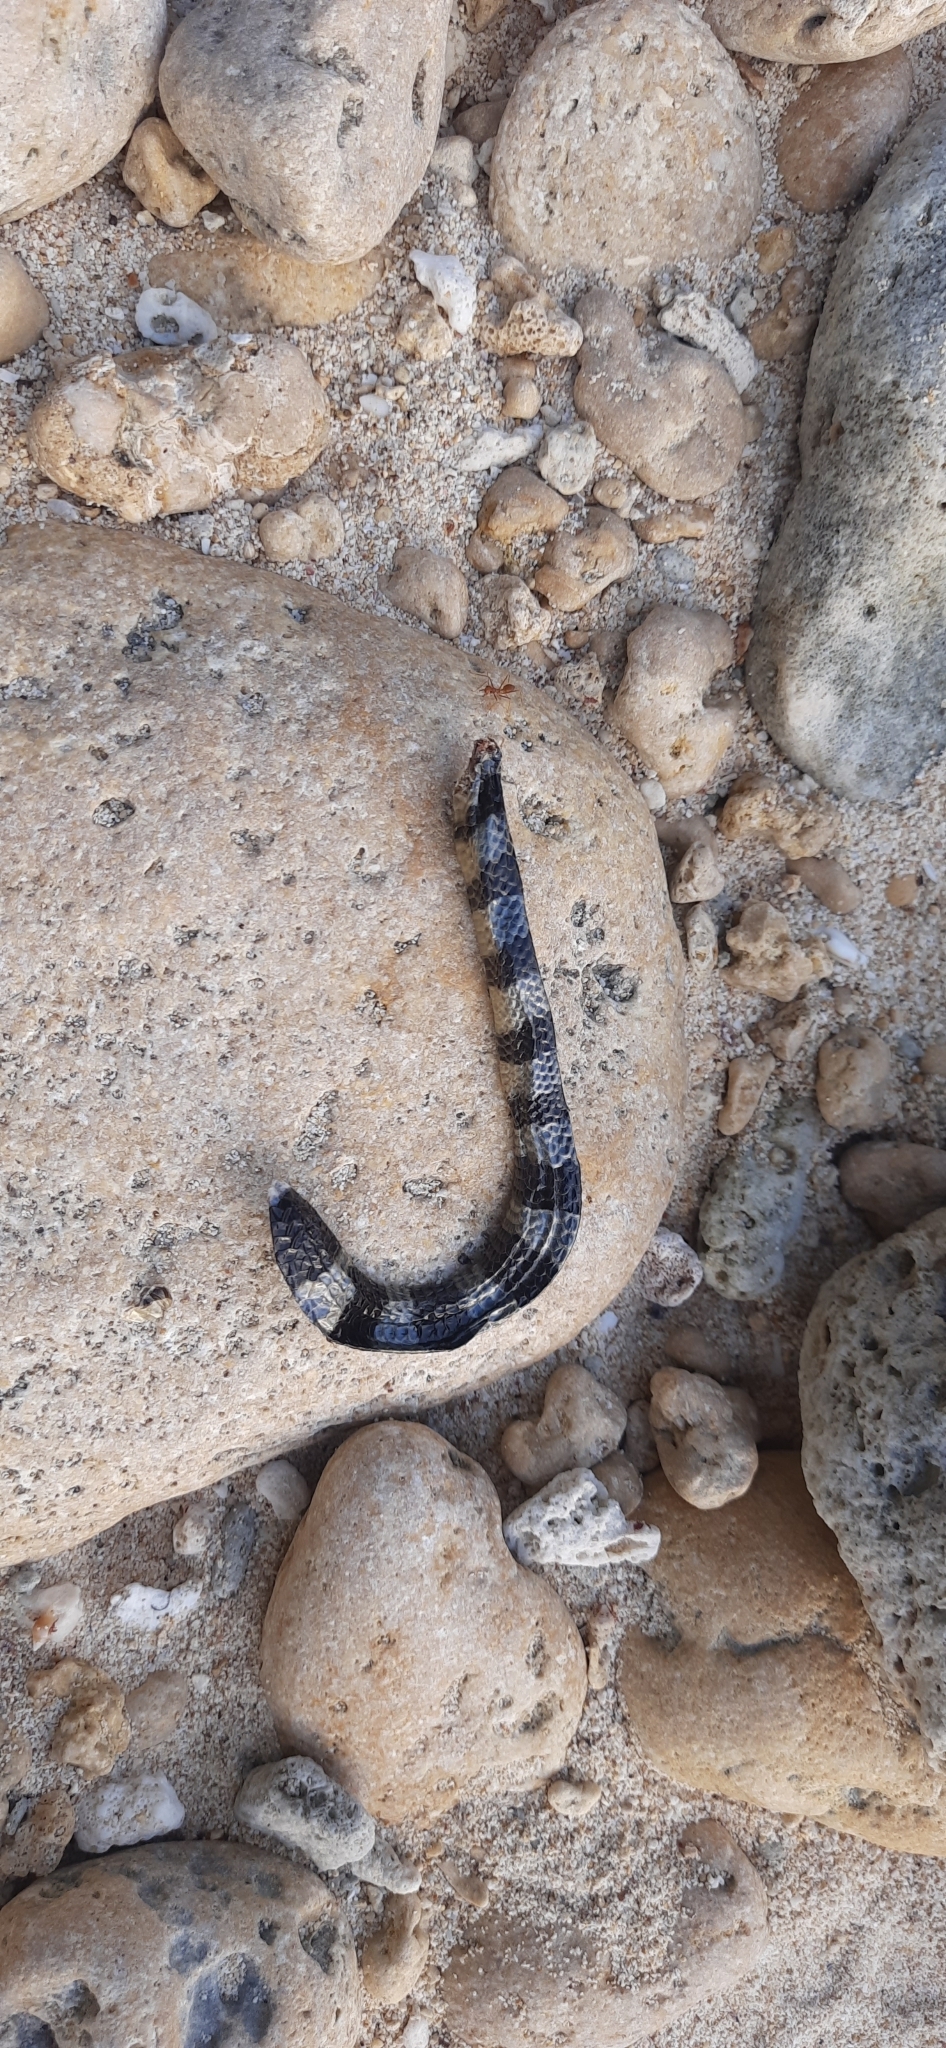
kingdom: Animalia
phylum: Chordata
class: Squamata
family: Elapidae
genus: Laticauda
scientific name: Laticauda colubrina
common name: Yellow-lipped sea krait
